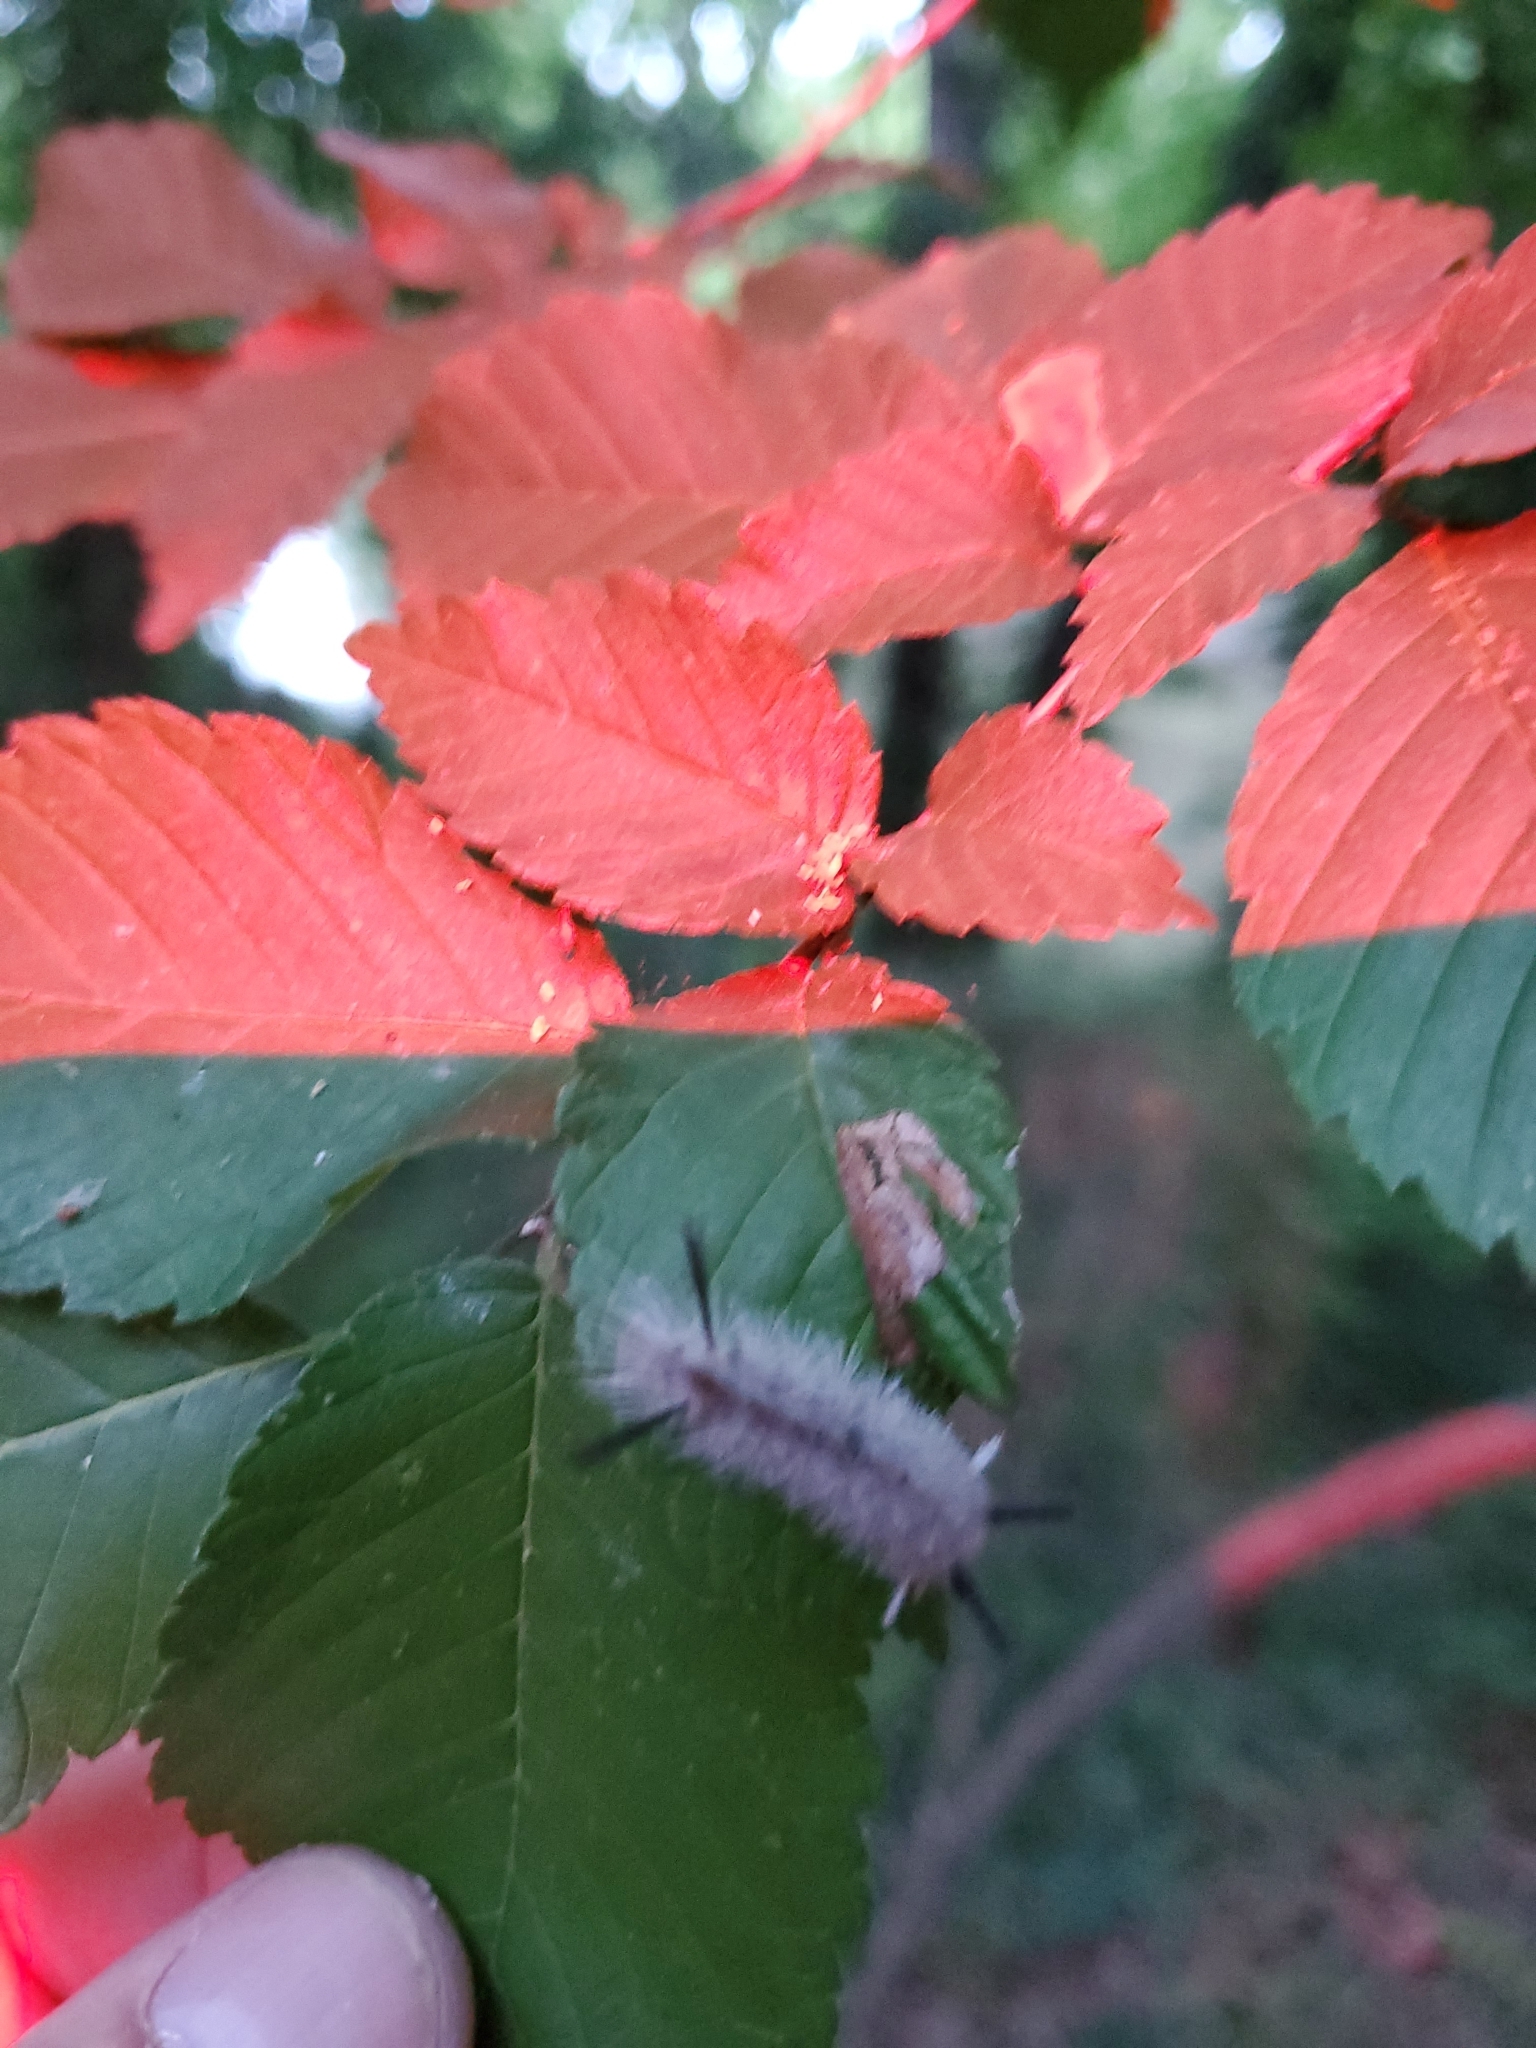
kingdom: Animalia
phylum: Arthropoda
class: Insecta
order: Lepidoptera
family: Erebidae
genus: Halysidota
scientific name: Halysidota tessellaris
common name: Banded tussock moth
